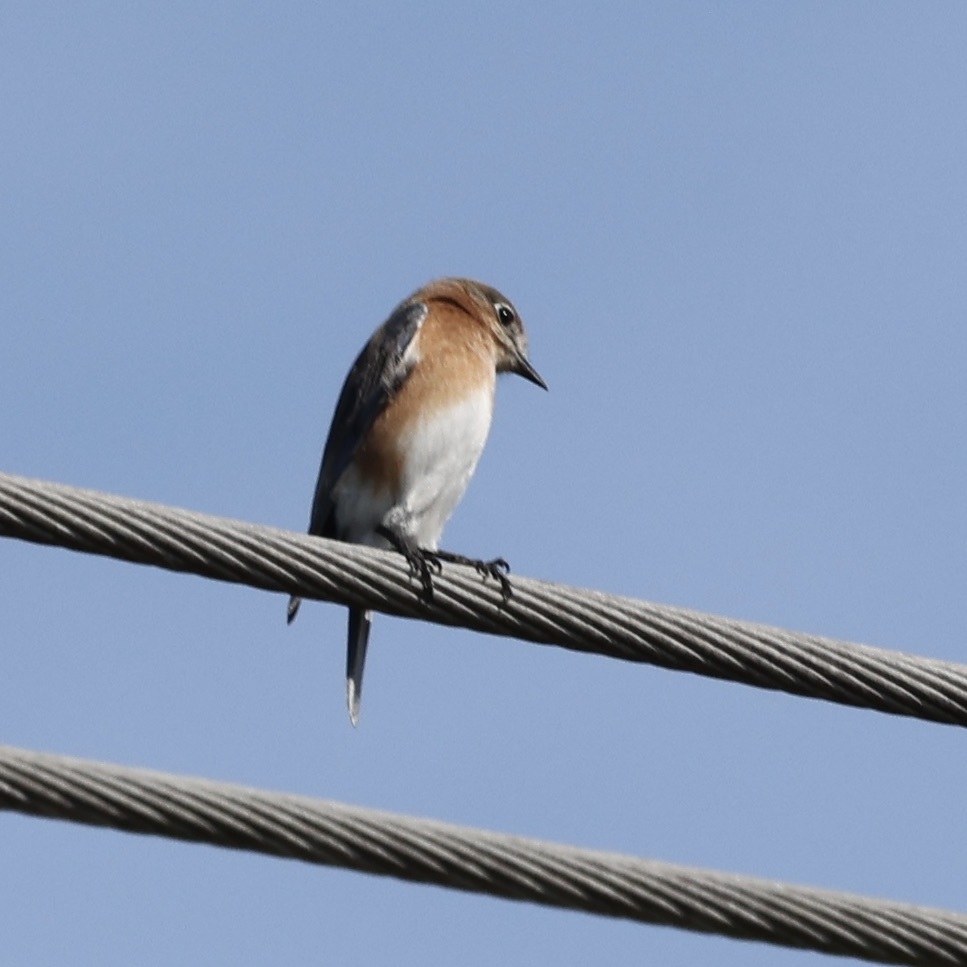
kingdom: Animalia
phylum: Chordata
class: Aves
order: Passeriformes
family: Turdidae
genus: Sialia
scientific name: Sialia sialis
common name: Eastern bluebird
